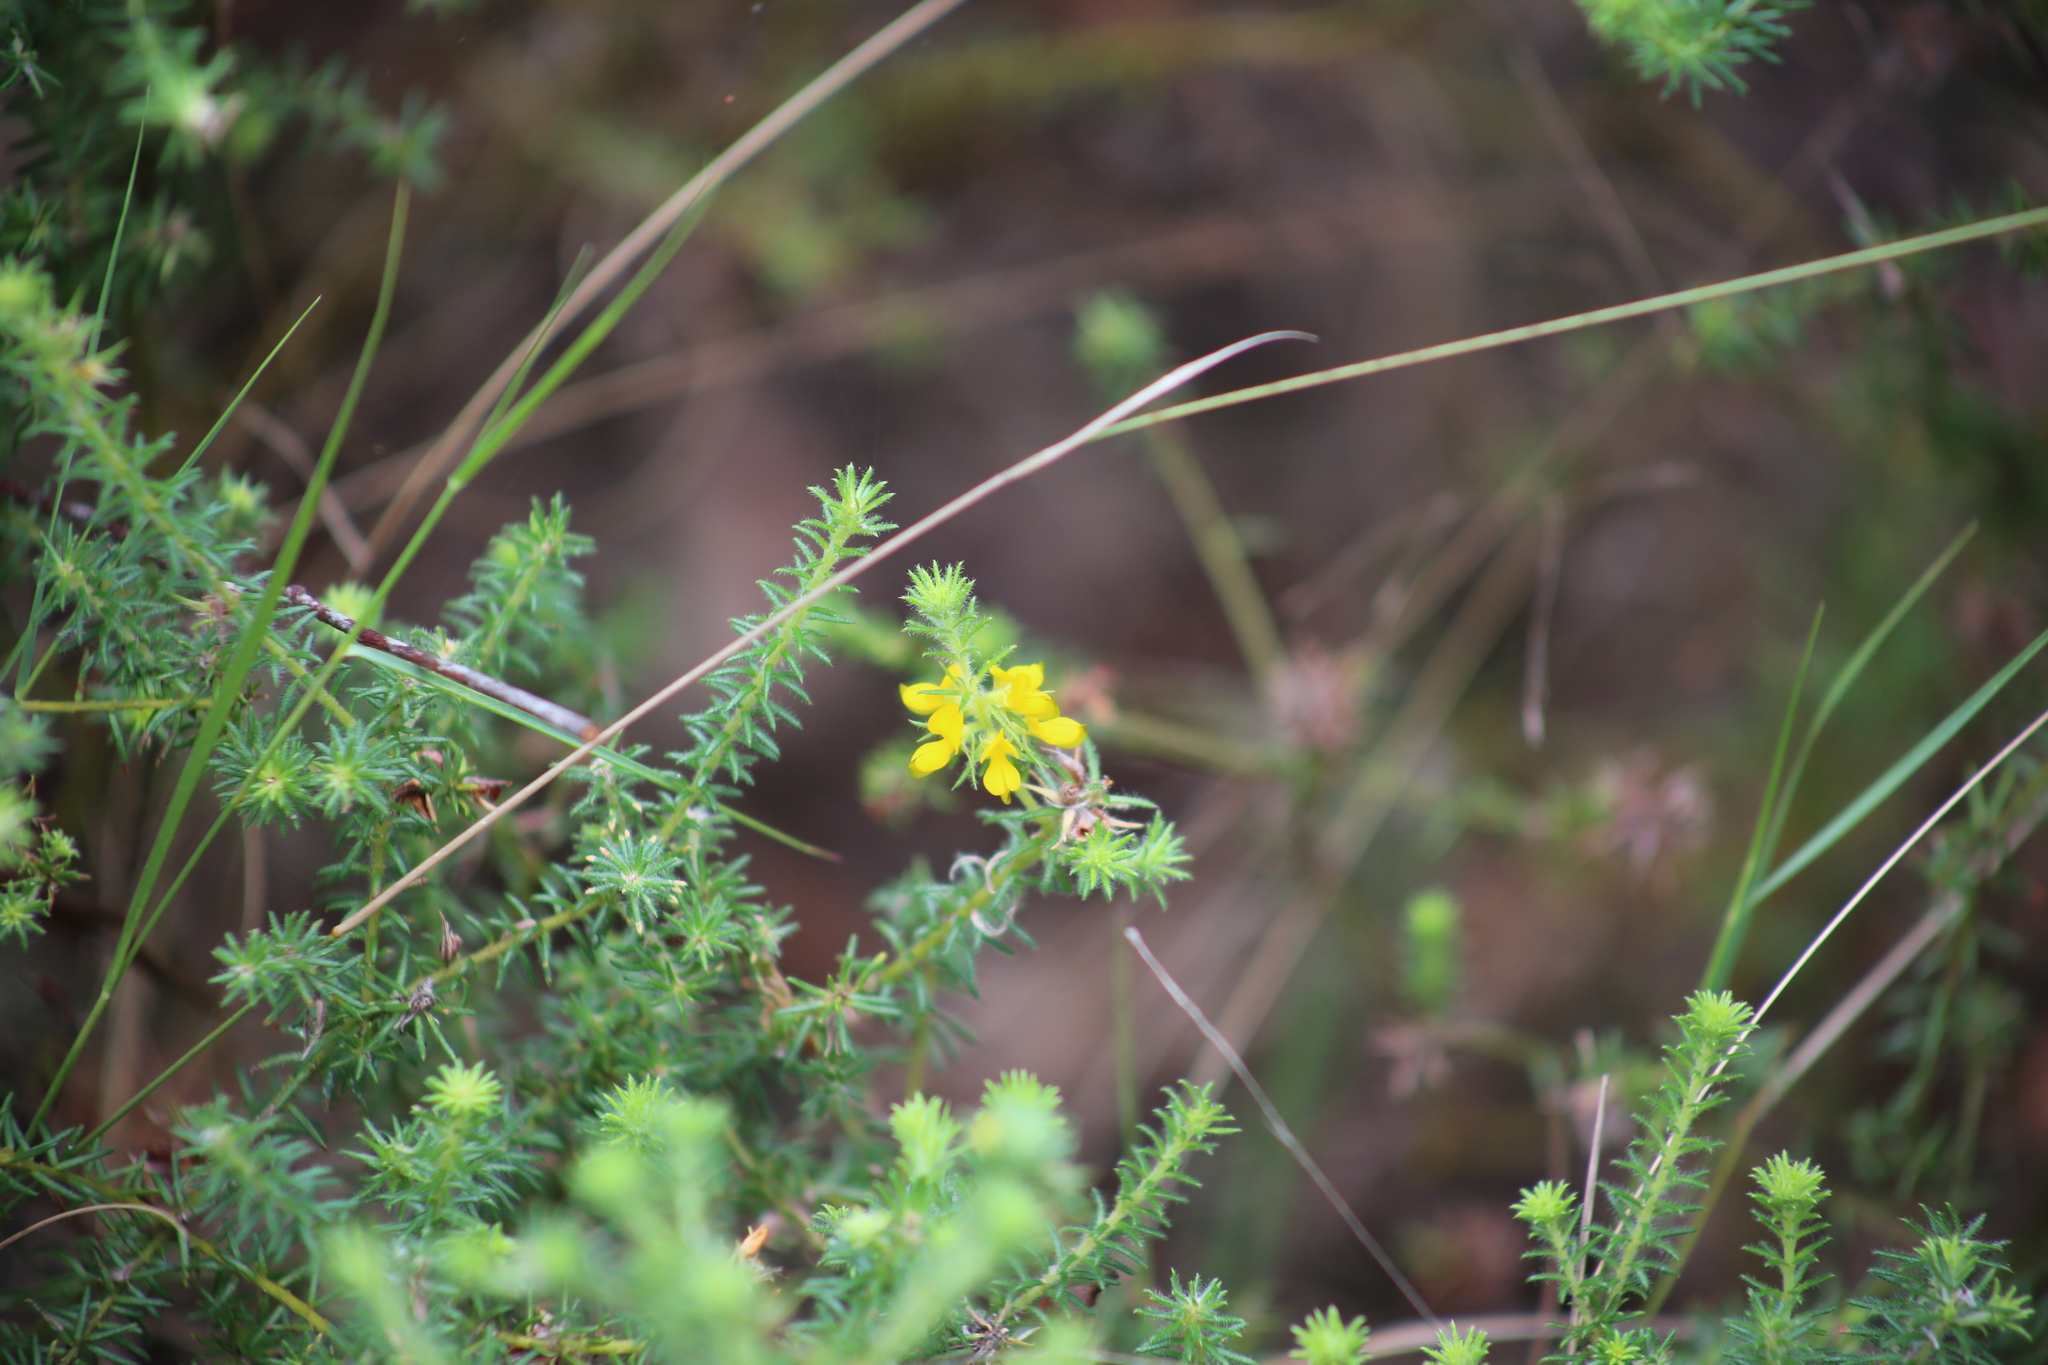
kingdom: Plantae
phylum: Tracheophyta
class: Magnoliopsida
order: Fabales
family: Fabaceae
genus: Phyllota
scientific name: Phyllota phylicoides
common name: Heath phyllota
